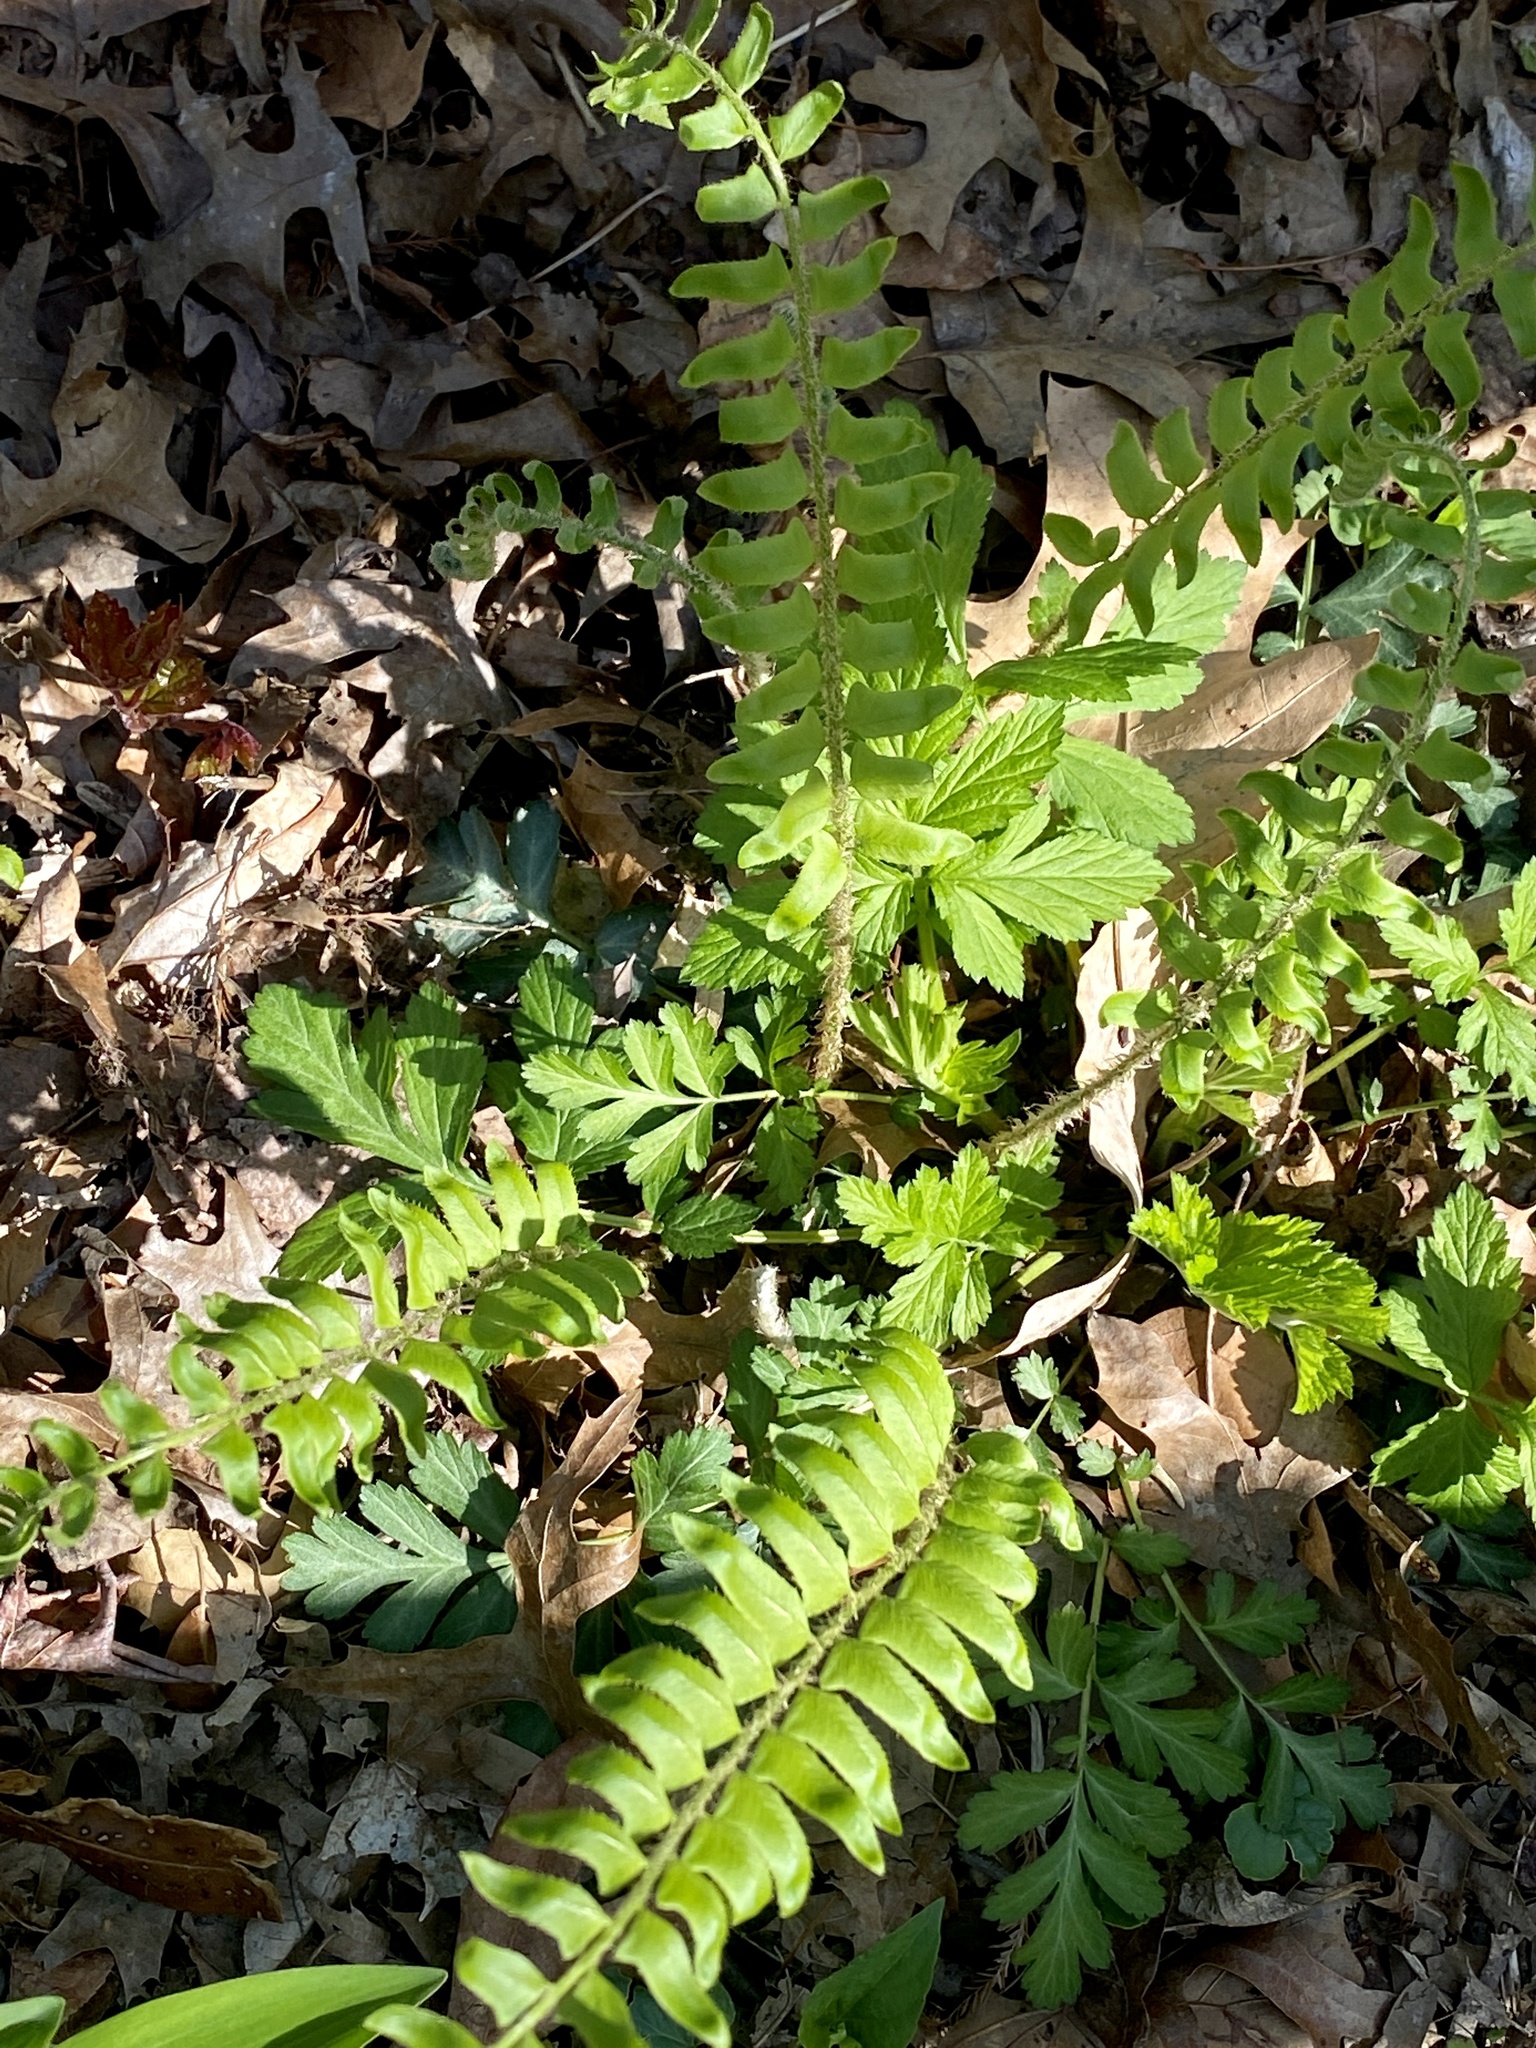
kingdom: Plantae
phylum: Tracheophyta
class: Polypodiopsida
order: Polypodiales
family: Dryopteridaceae
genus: Polystichum
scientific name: Polystichum acrostichoides
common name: Christmas fern
